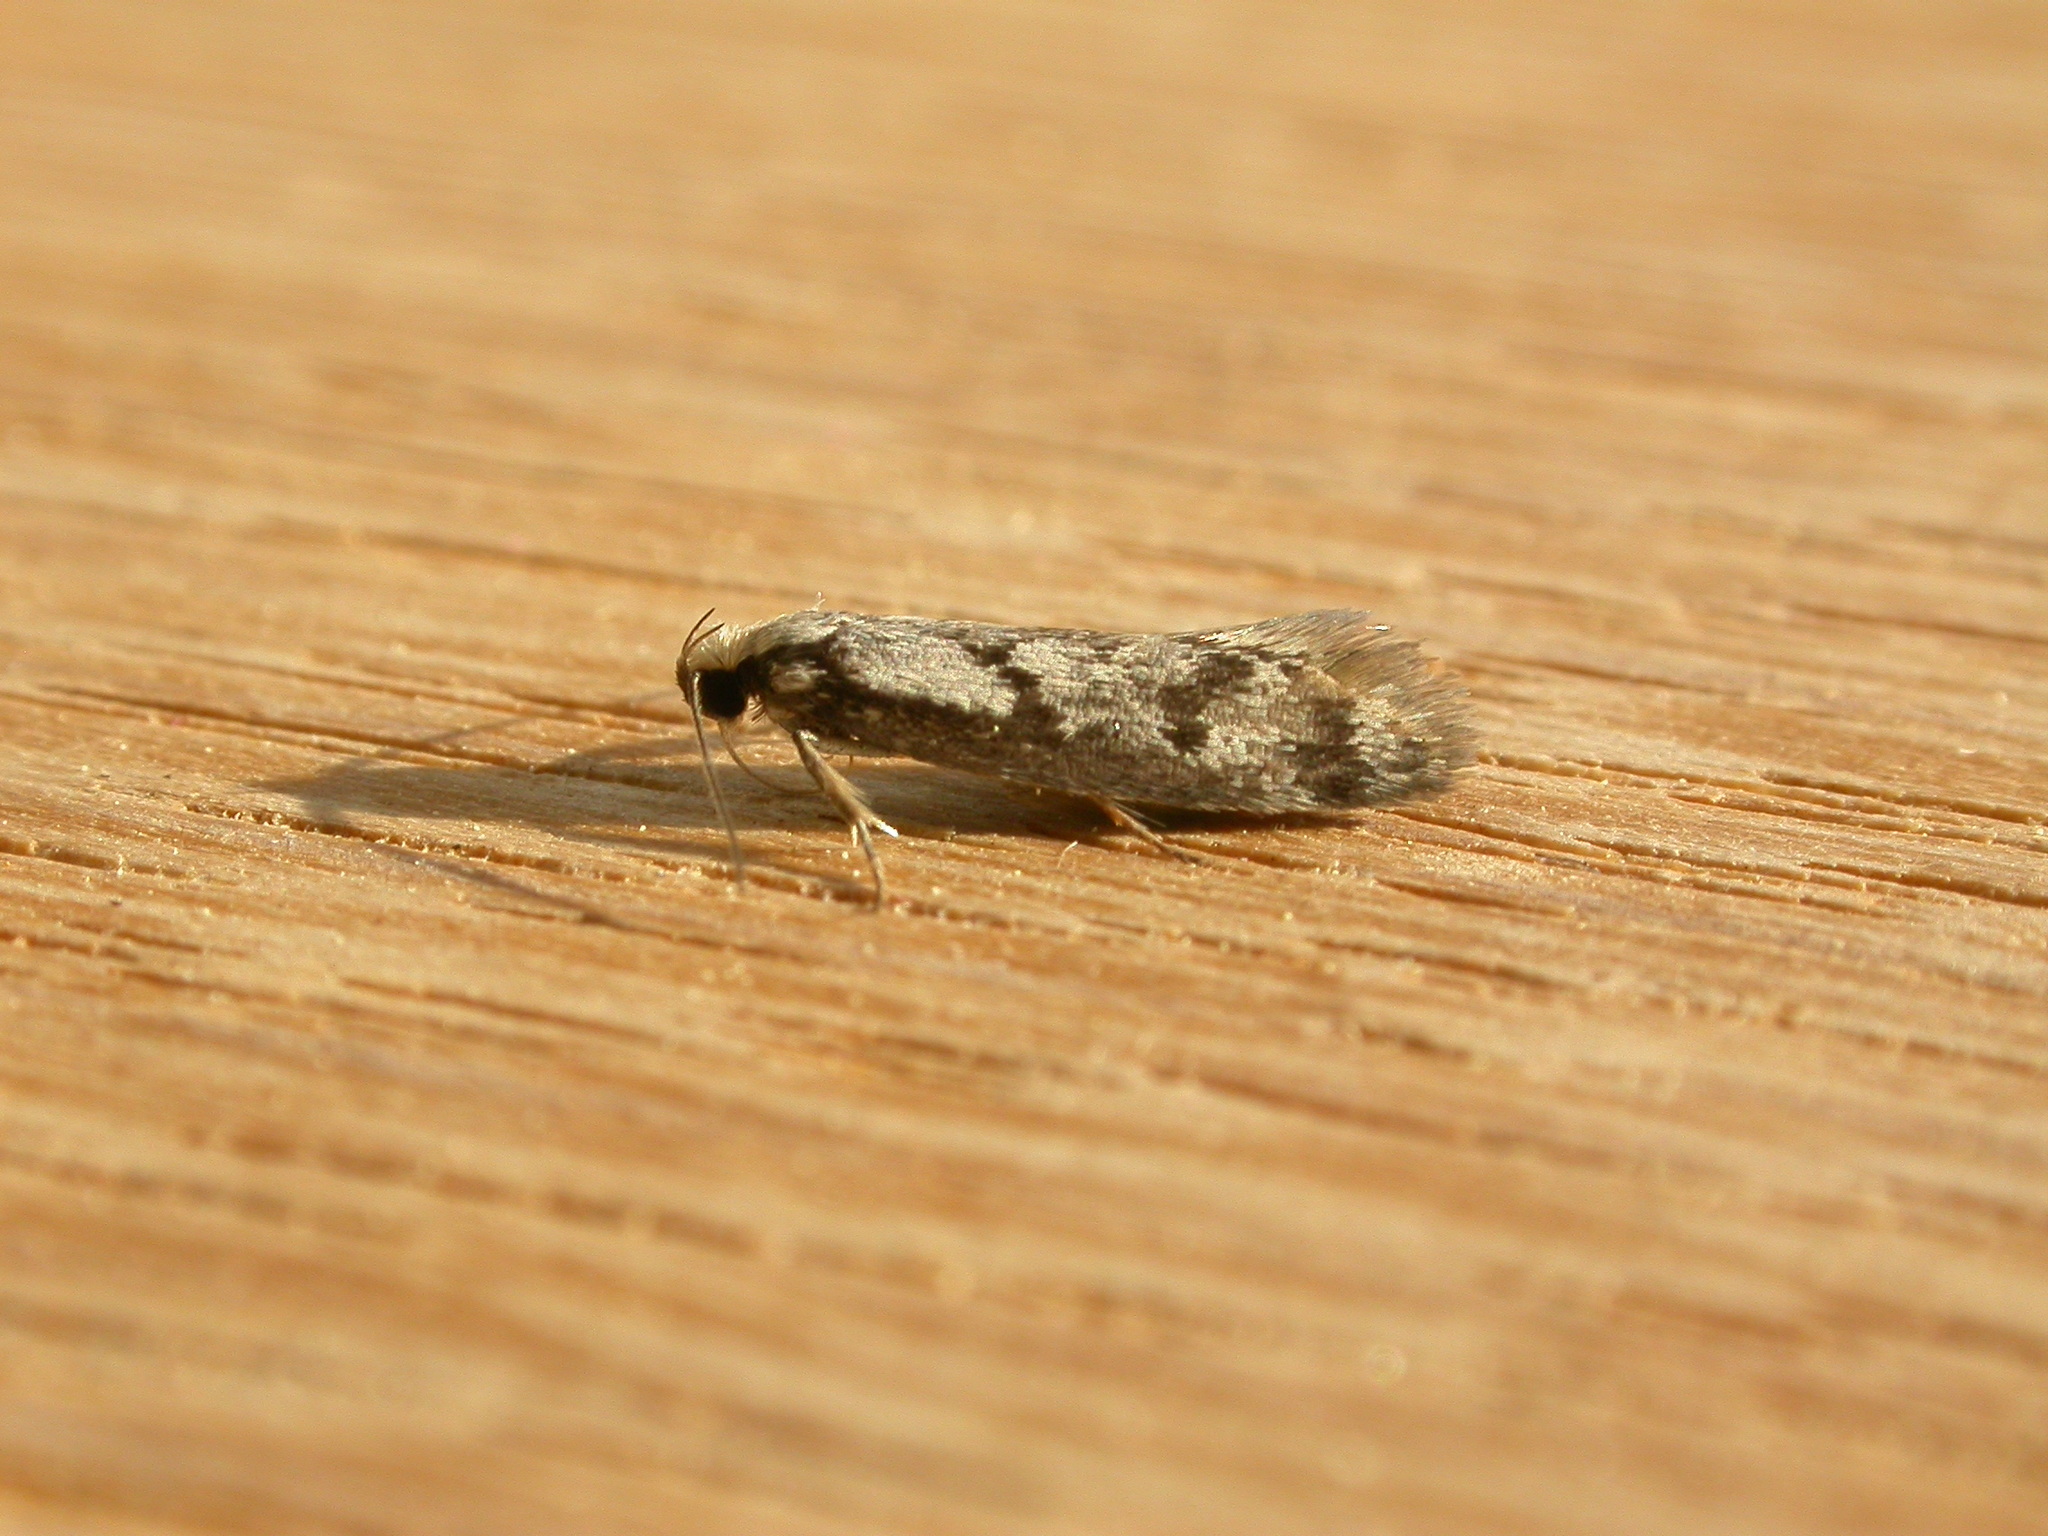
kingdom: Animalia
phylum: Arthropoda
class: Insecta
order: Lepidoptera
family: Oecophoridae
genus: Eusemocosma
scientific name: Eusemocosma pruinosa
